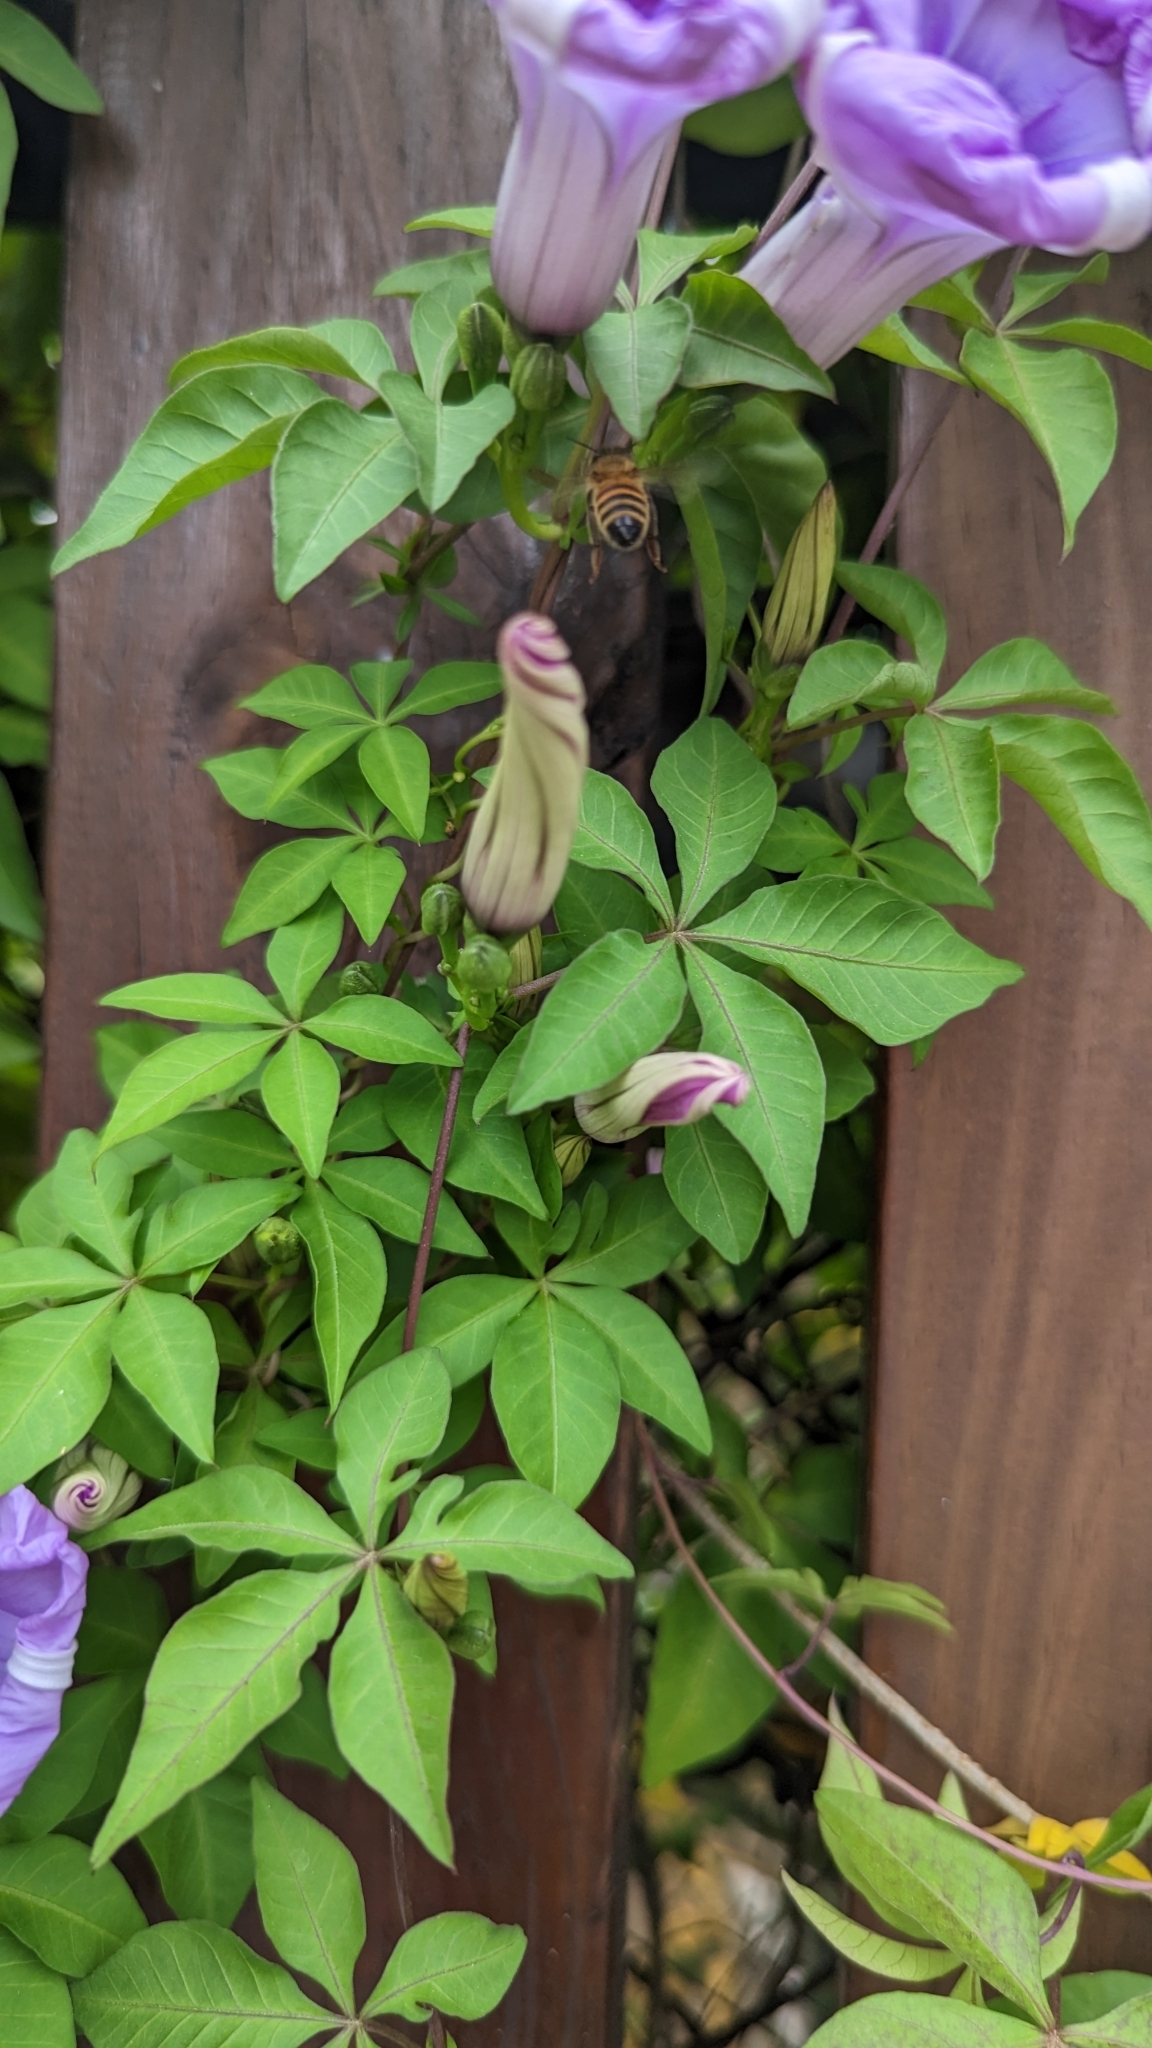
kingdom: Plantae
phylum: Tracheophyta
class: Magnoliopsida
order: Solanales
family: Convolvulaceae
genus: Ipomoea
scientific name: Ipomoea cairica
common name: Mile a minute vine
